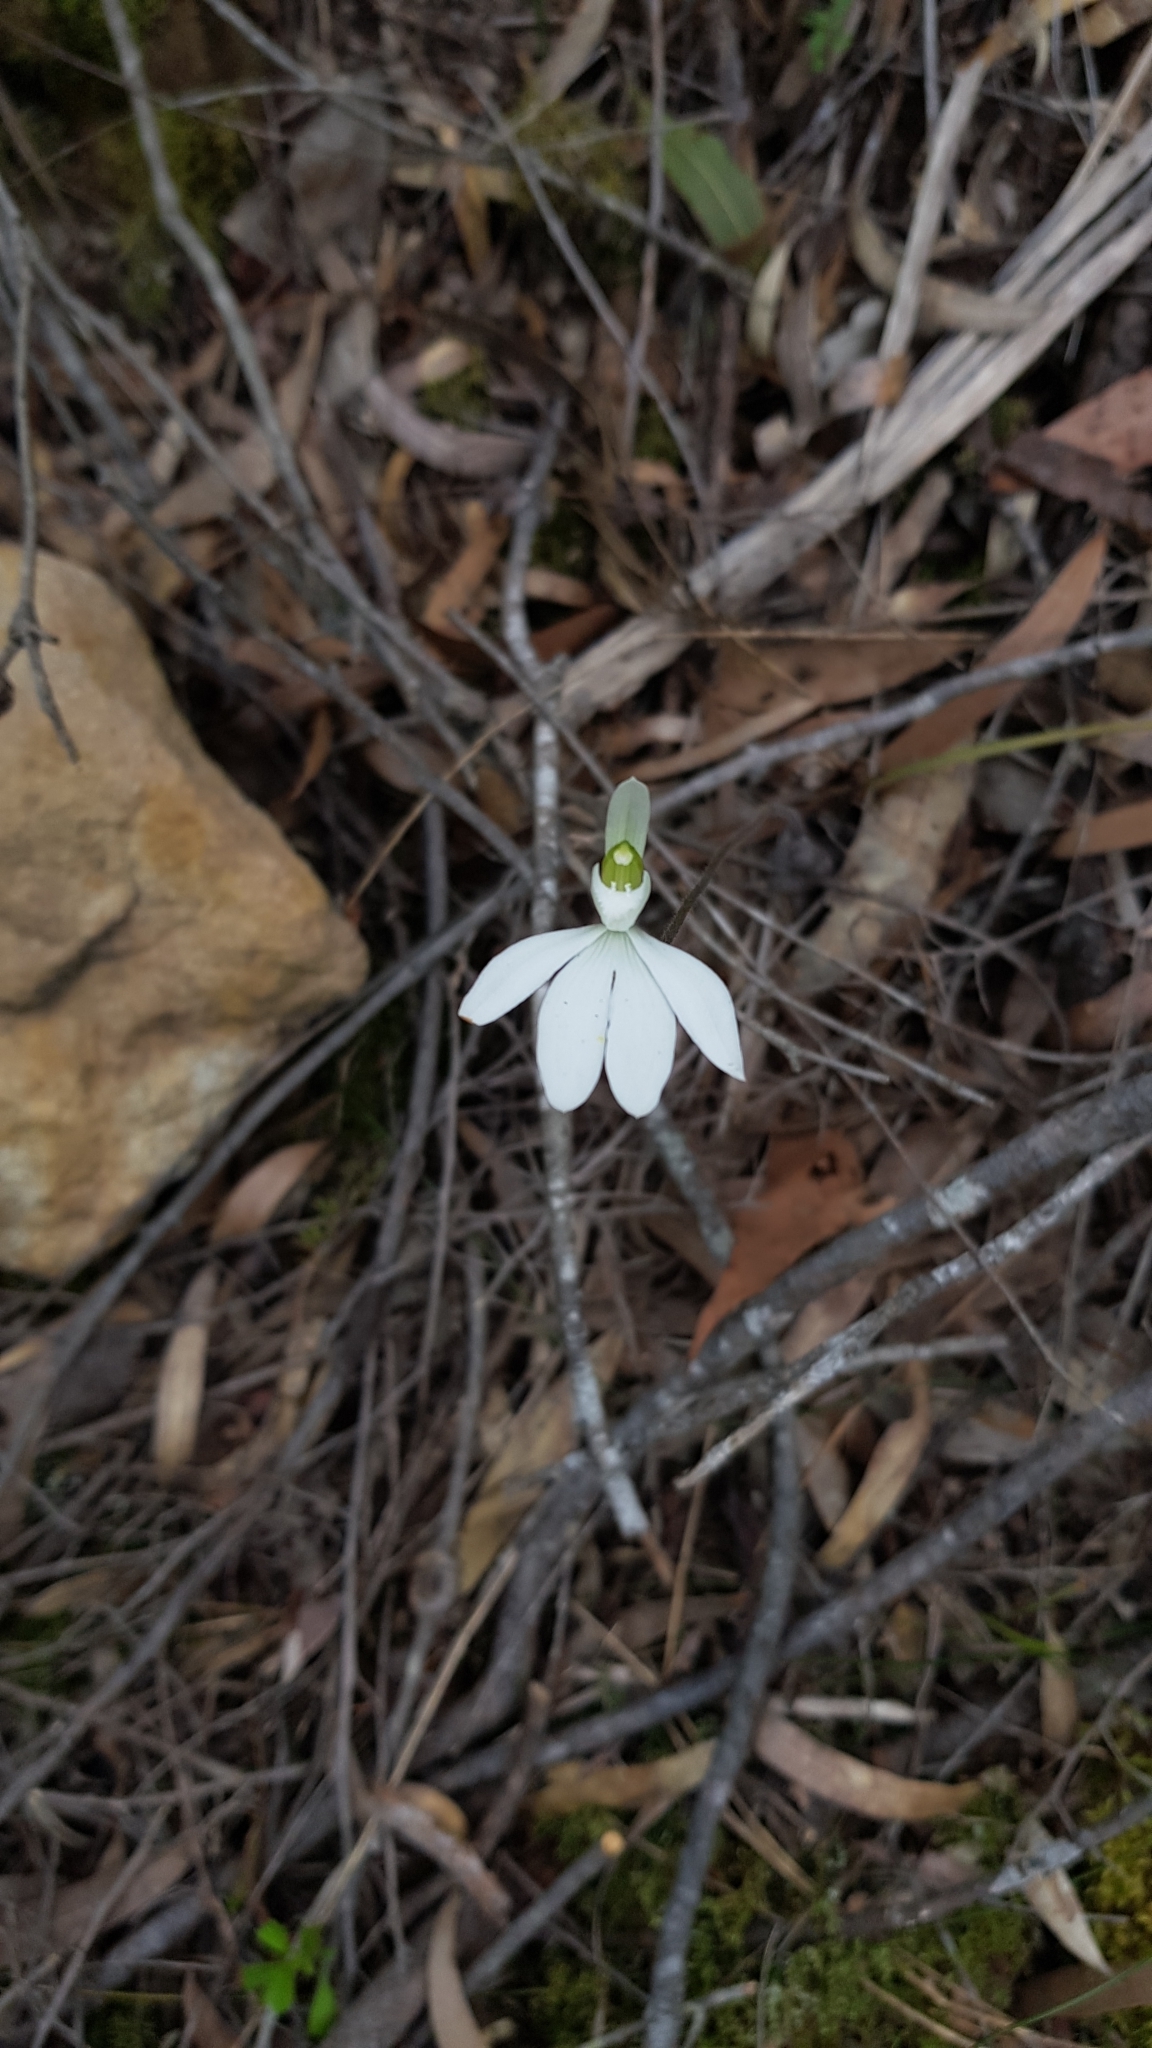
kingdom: Plantae
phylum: Tracheophyta
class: Liliopsida
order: Asparagales
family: Orchidaceae
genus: Caladenia
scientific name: Caladenia catenata
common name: White caladenia
